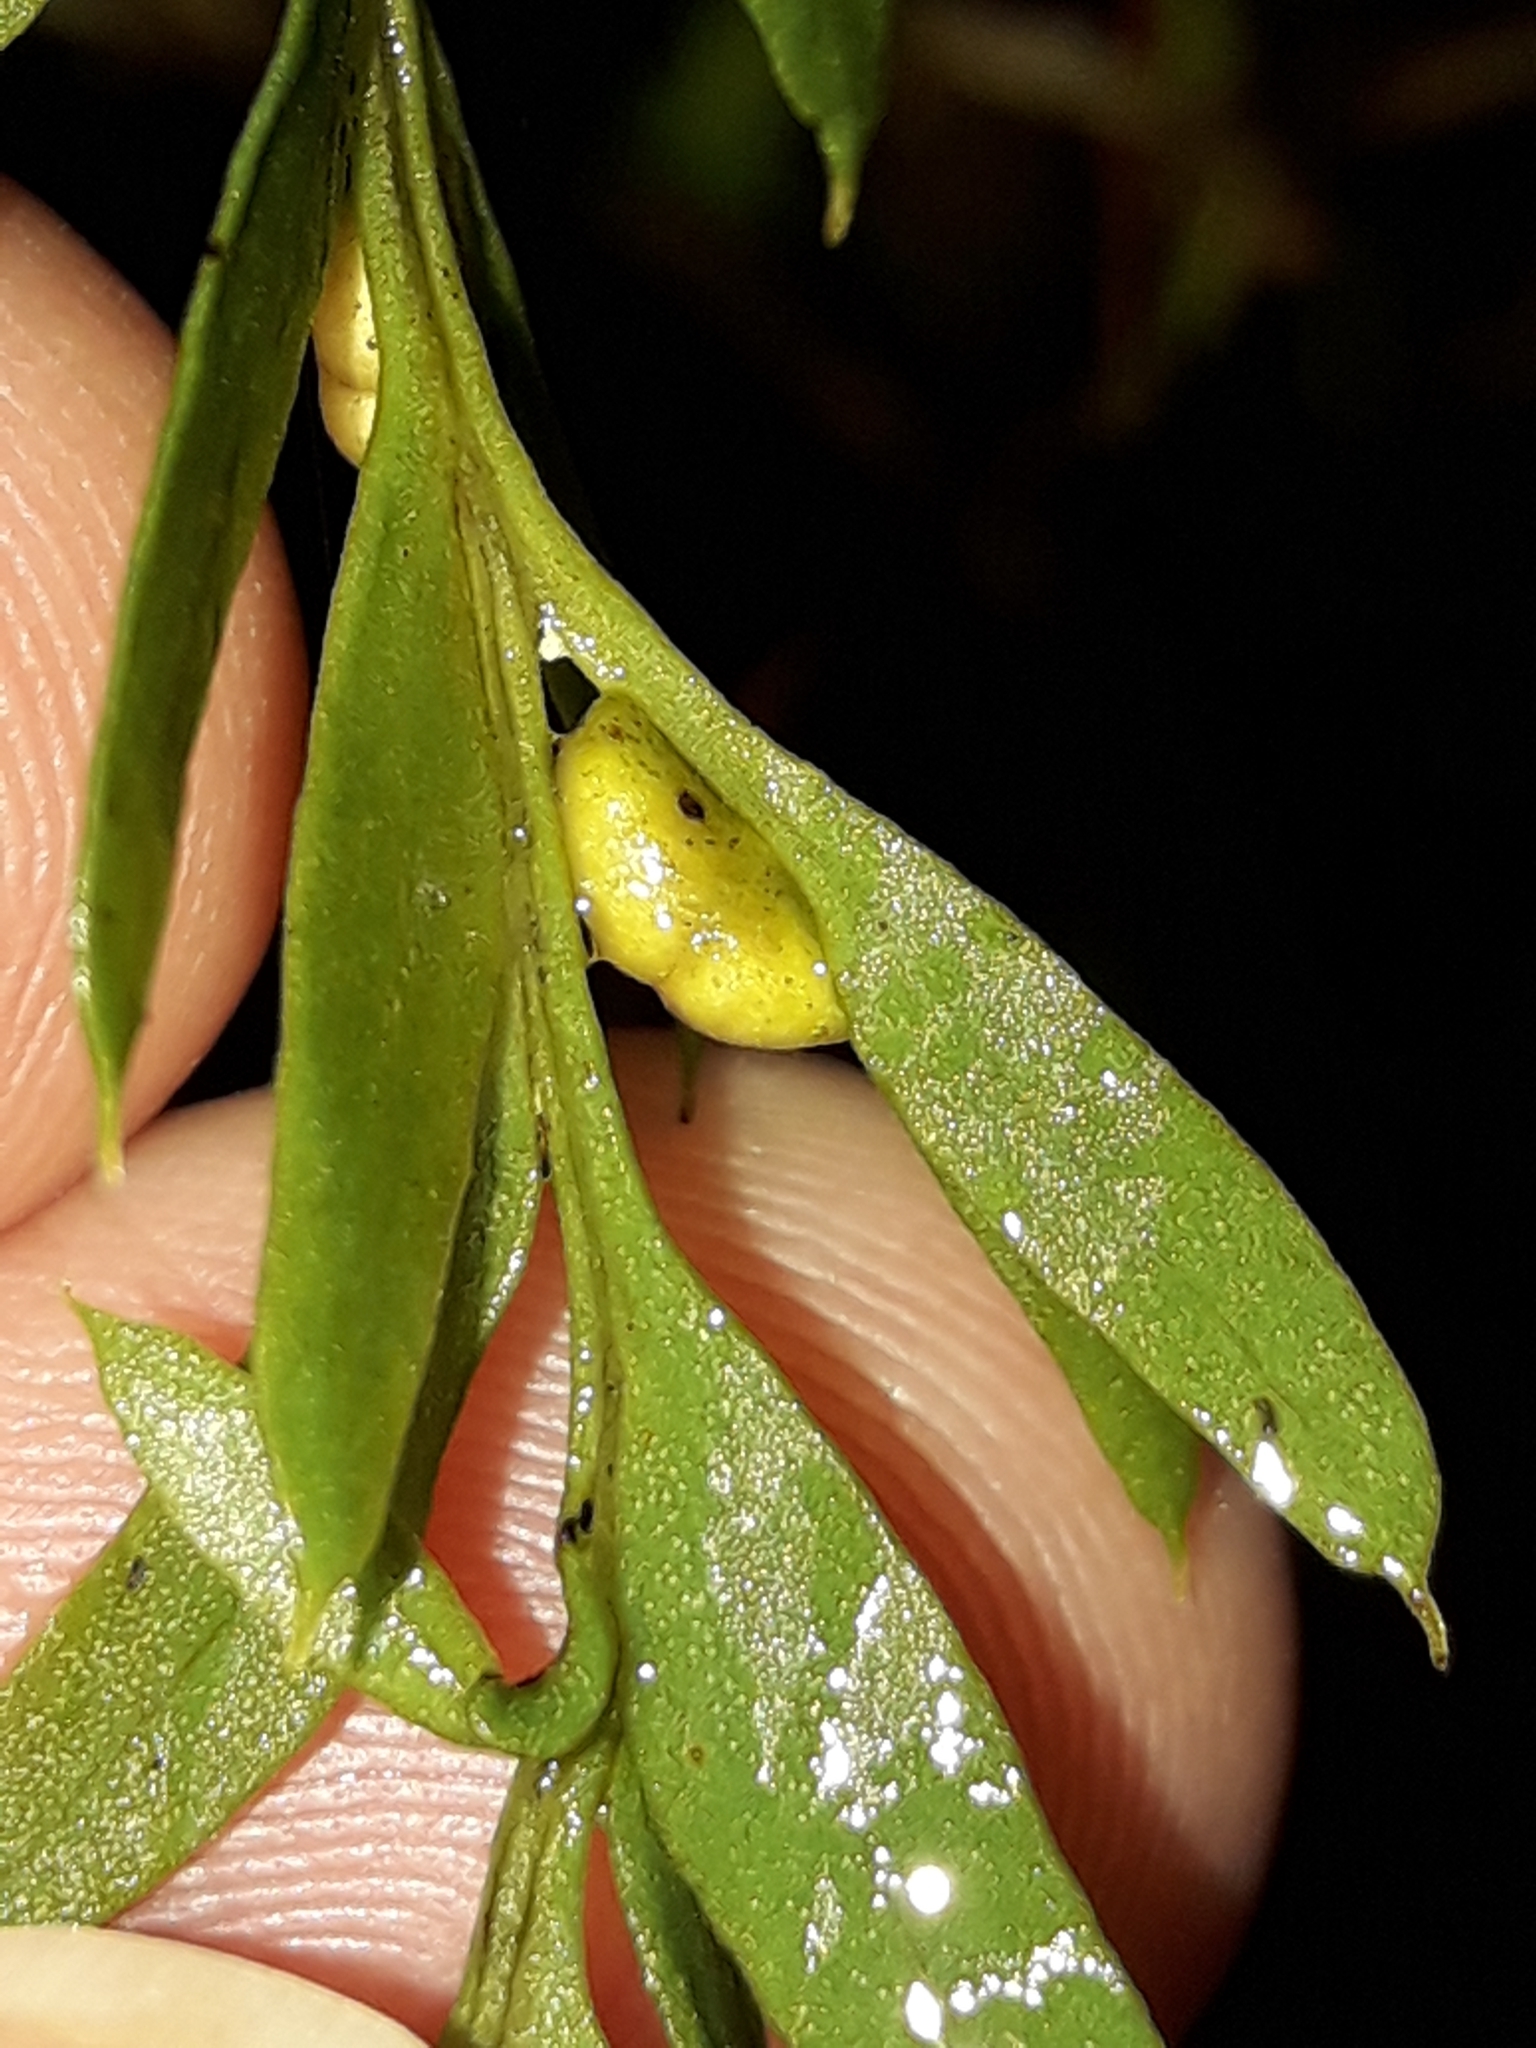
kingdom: Plantae
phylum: Tracheophyta
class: Polypodiopsida
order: Psilotales
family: Psilotaceae
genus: Tmesipteris
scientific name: Tmesipteris elongata
